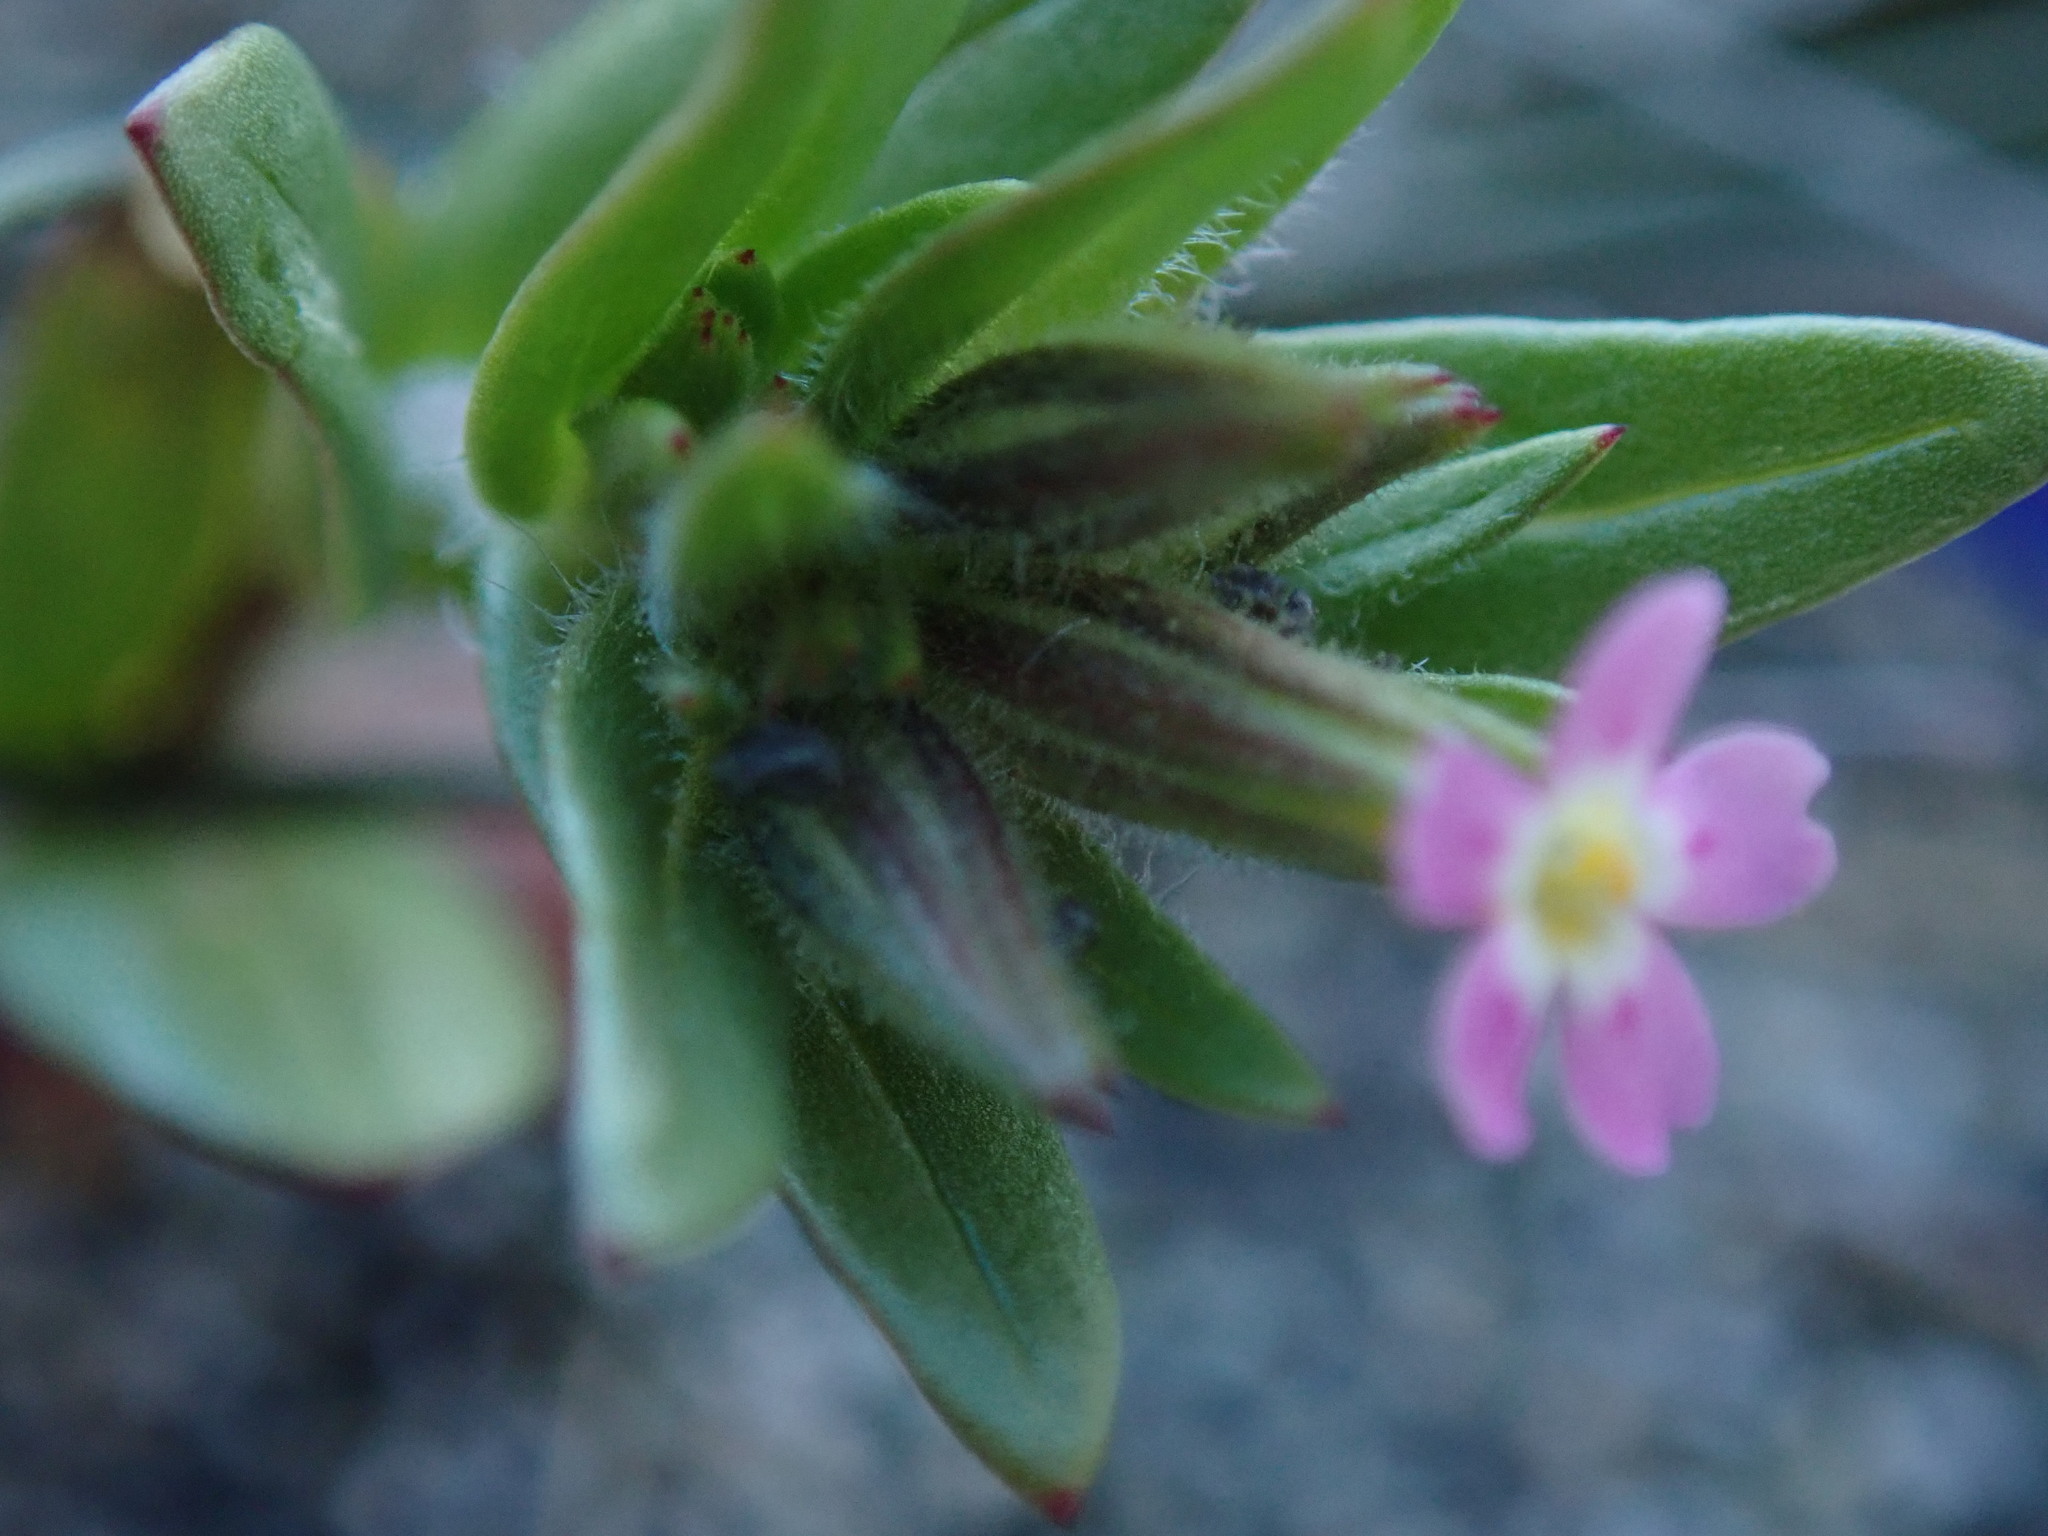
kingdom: Plantae
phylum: Tracheophyta
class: Magnoliopsida
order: Ericales
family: Polemoniaceae
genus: Phlox
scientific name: Phlox gracilis
